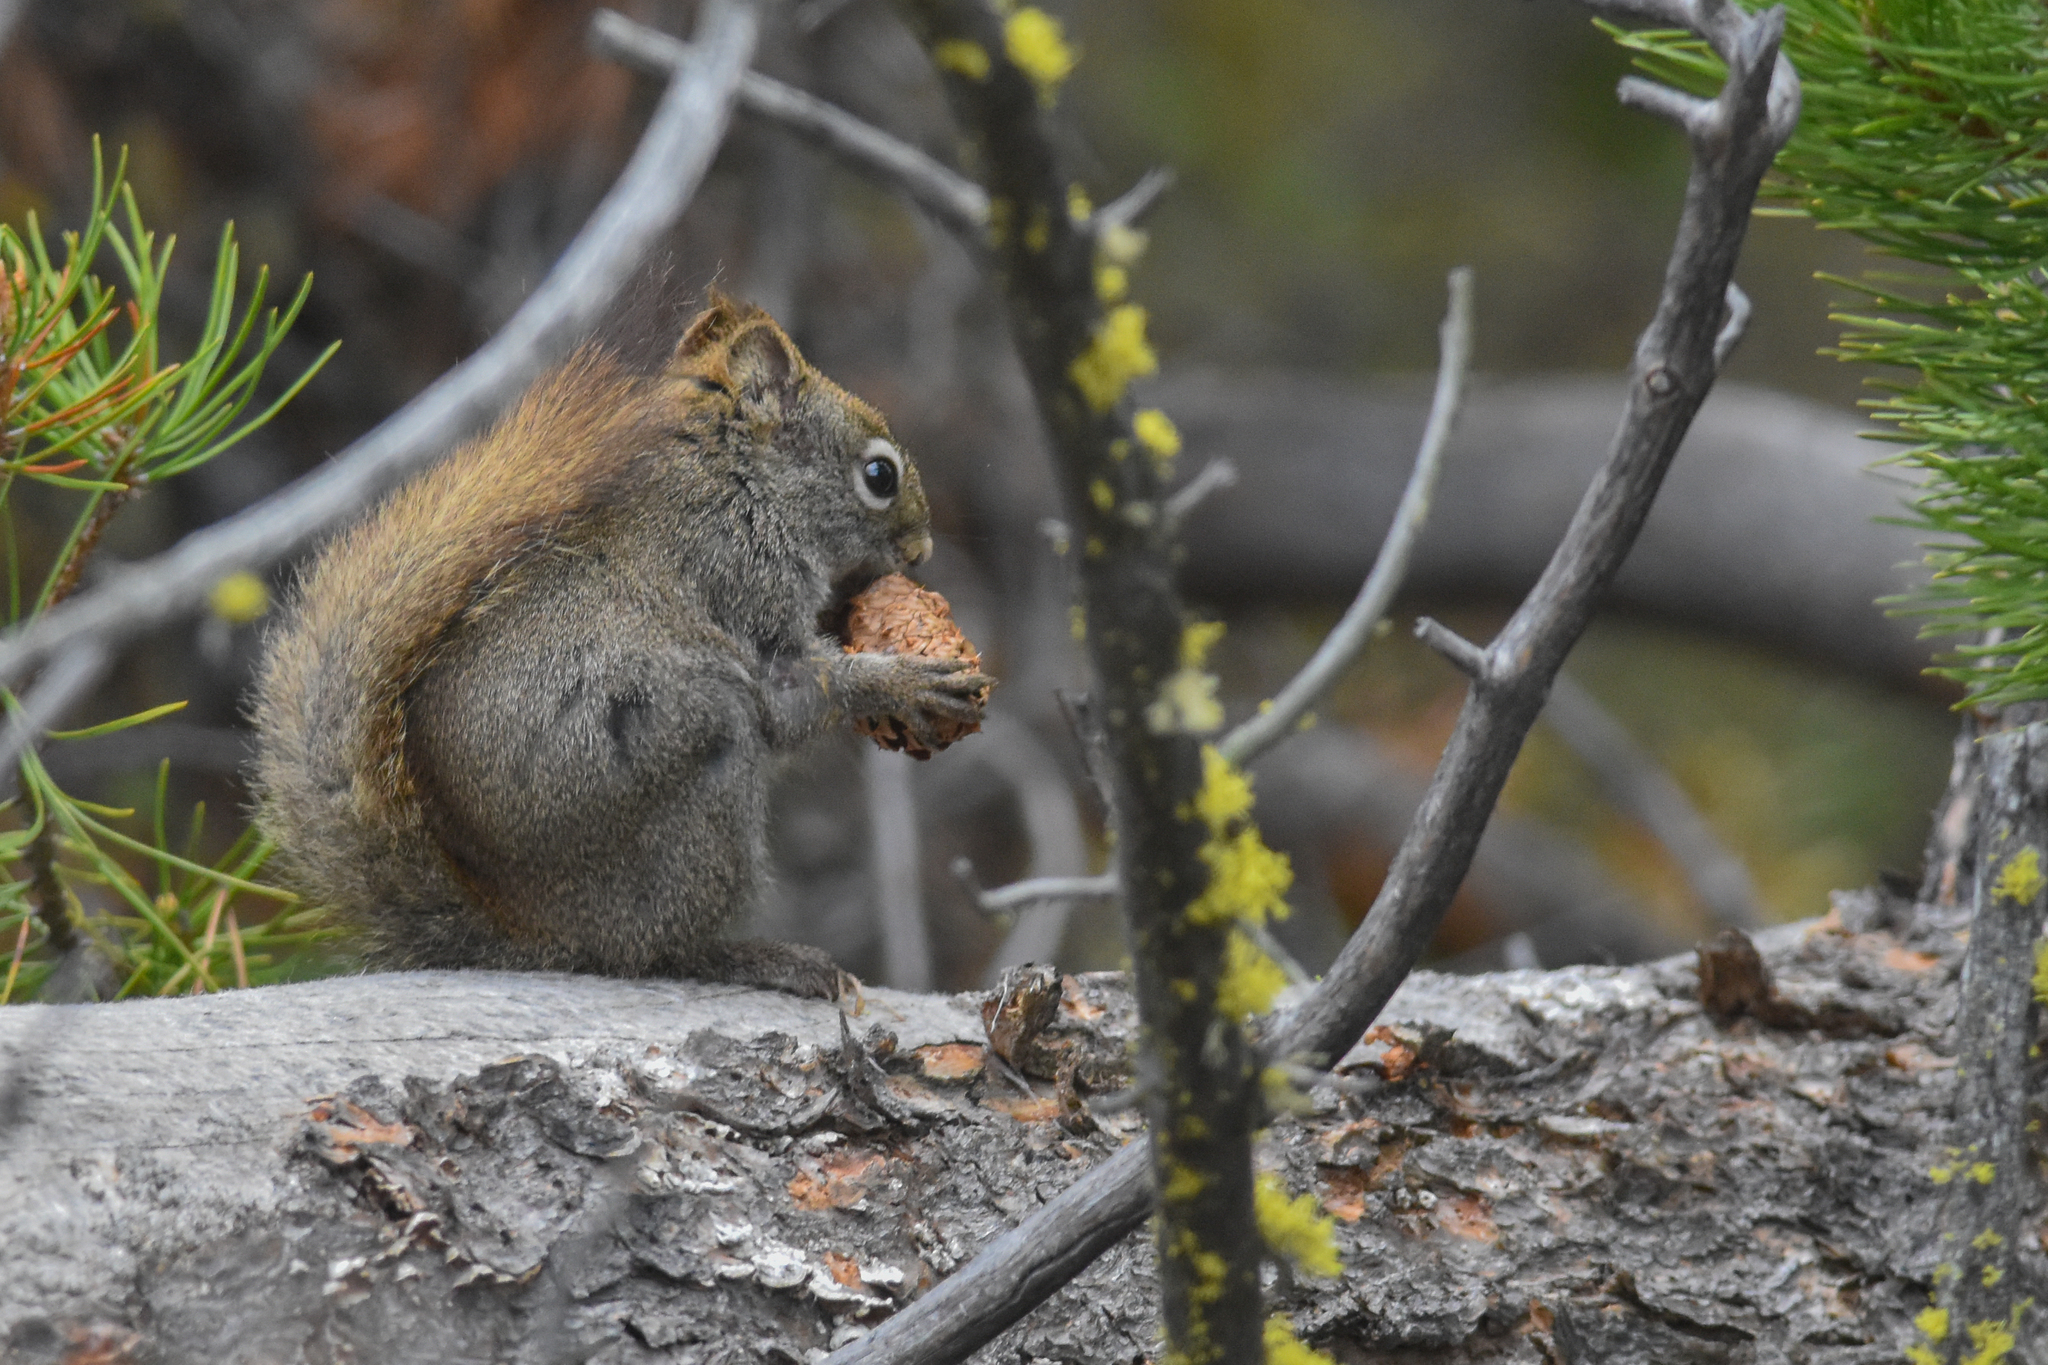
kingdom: Animalia
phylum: Chordata
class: Mammalia
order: Rodentia
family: Sciuridae
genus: Tamiasciurus
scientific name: Tamiasciurus hudsonicus
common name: Red squirrel
